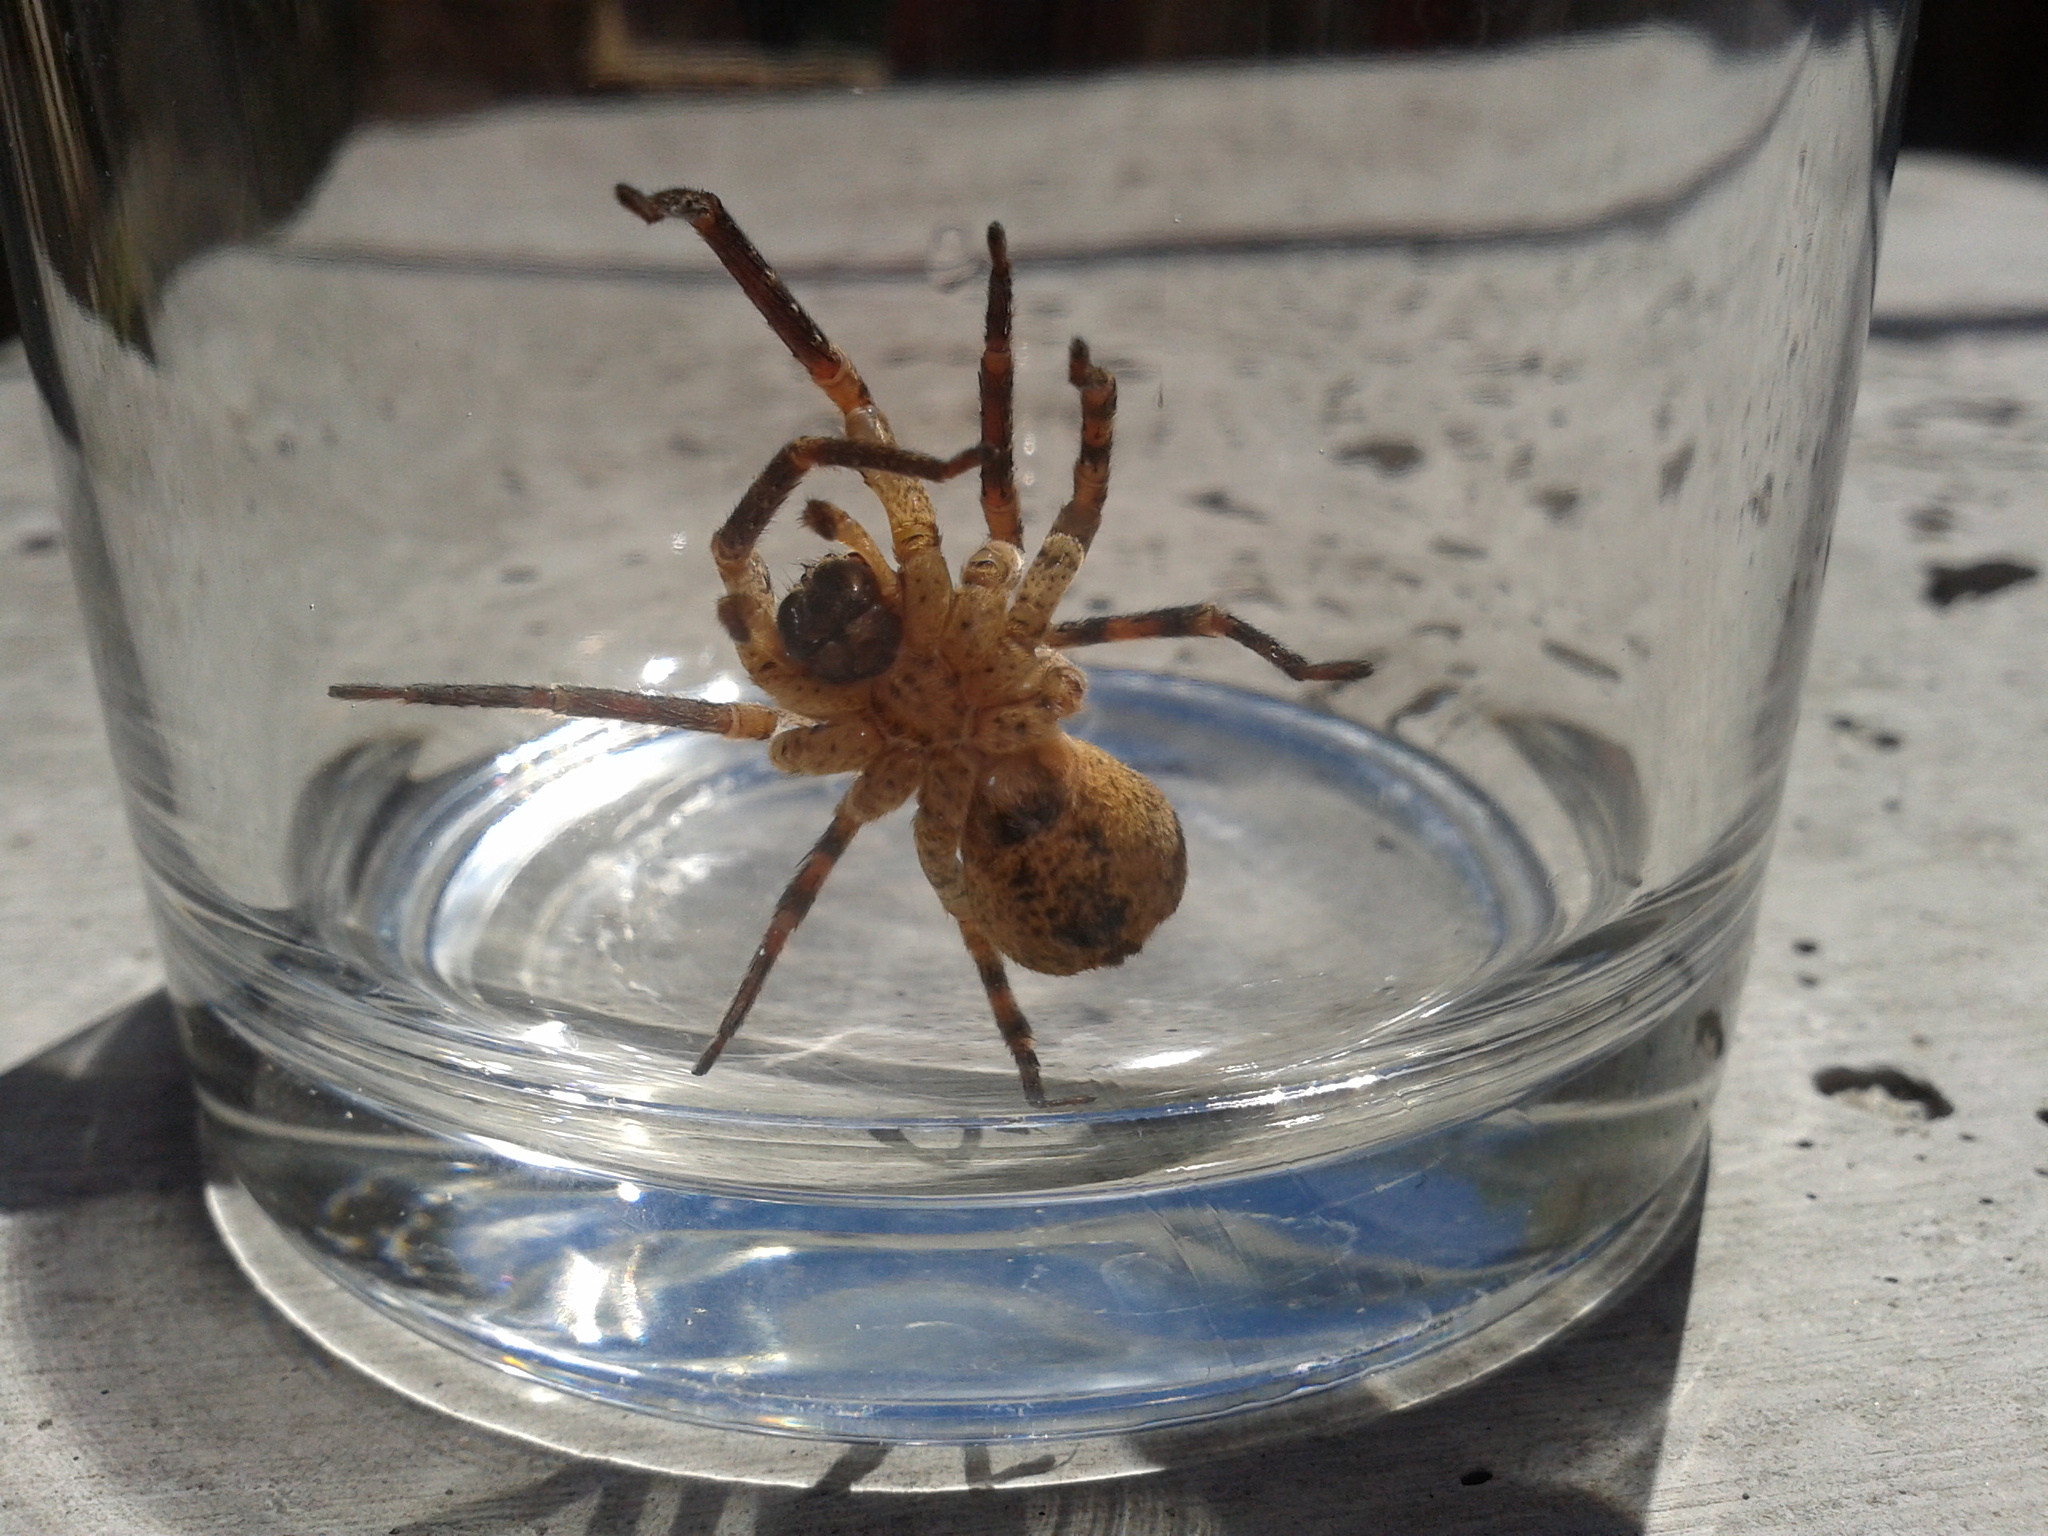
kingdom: Animalia
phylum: Arthropoda
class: Arachnida
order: Araneae
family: Zoropsidae
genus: Zoropsis
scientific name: Zoropsis spinimana
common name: Zoropsid spider
